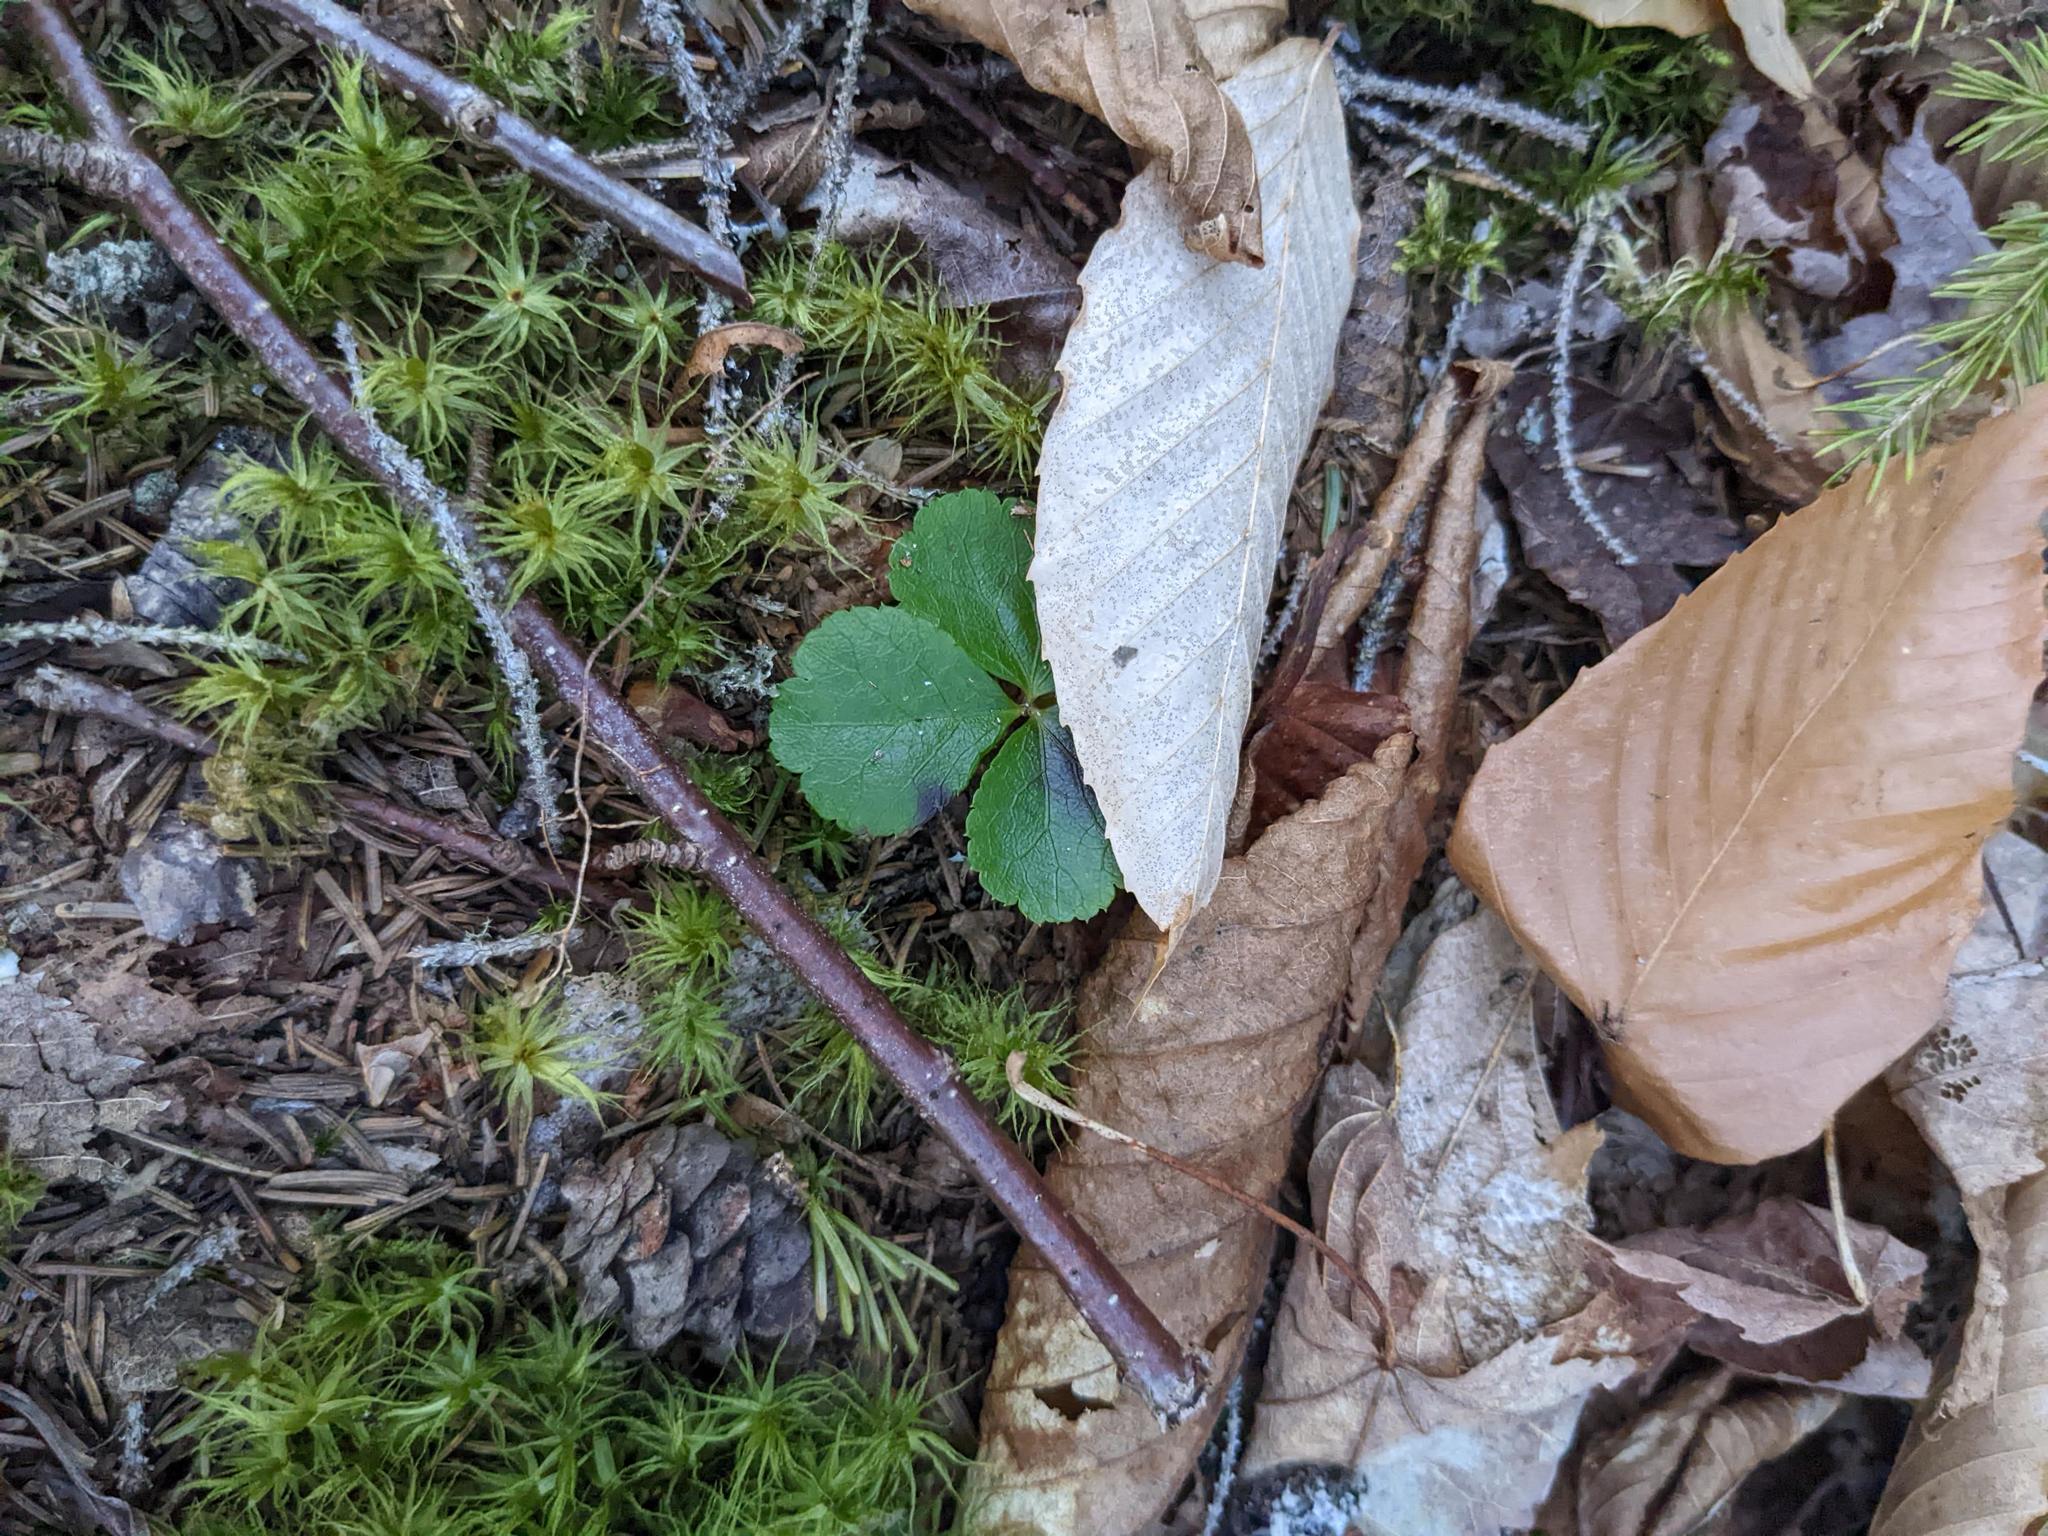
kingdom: Plantae
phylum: Tracheophyta
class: Magnoliopsida
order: Ranunculales
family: Ranunculaceae
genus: Coptis
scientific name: Coptis trifolia
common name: Canker-root
